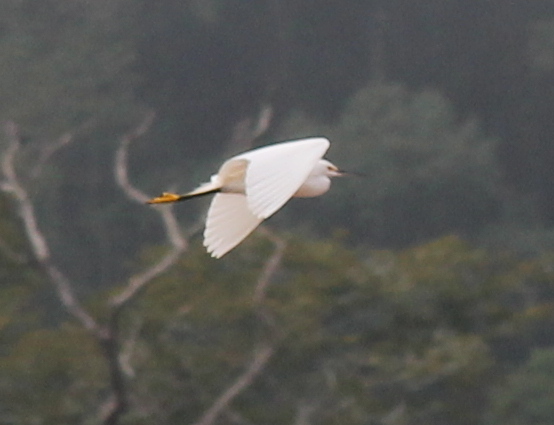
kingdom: Animalia
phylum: Chordata
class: Aves
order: Pelecaniformes
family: Ardeidae
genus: Egretta
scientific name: Egretta thula
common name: Snowy egret
